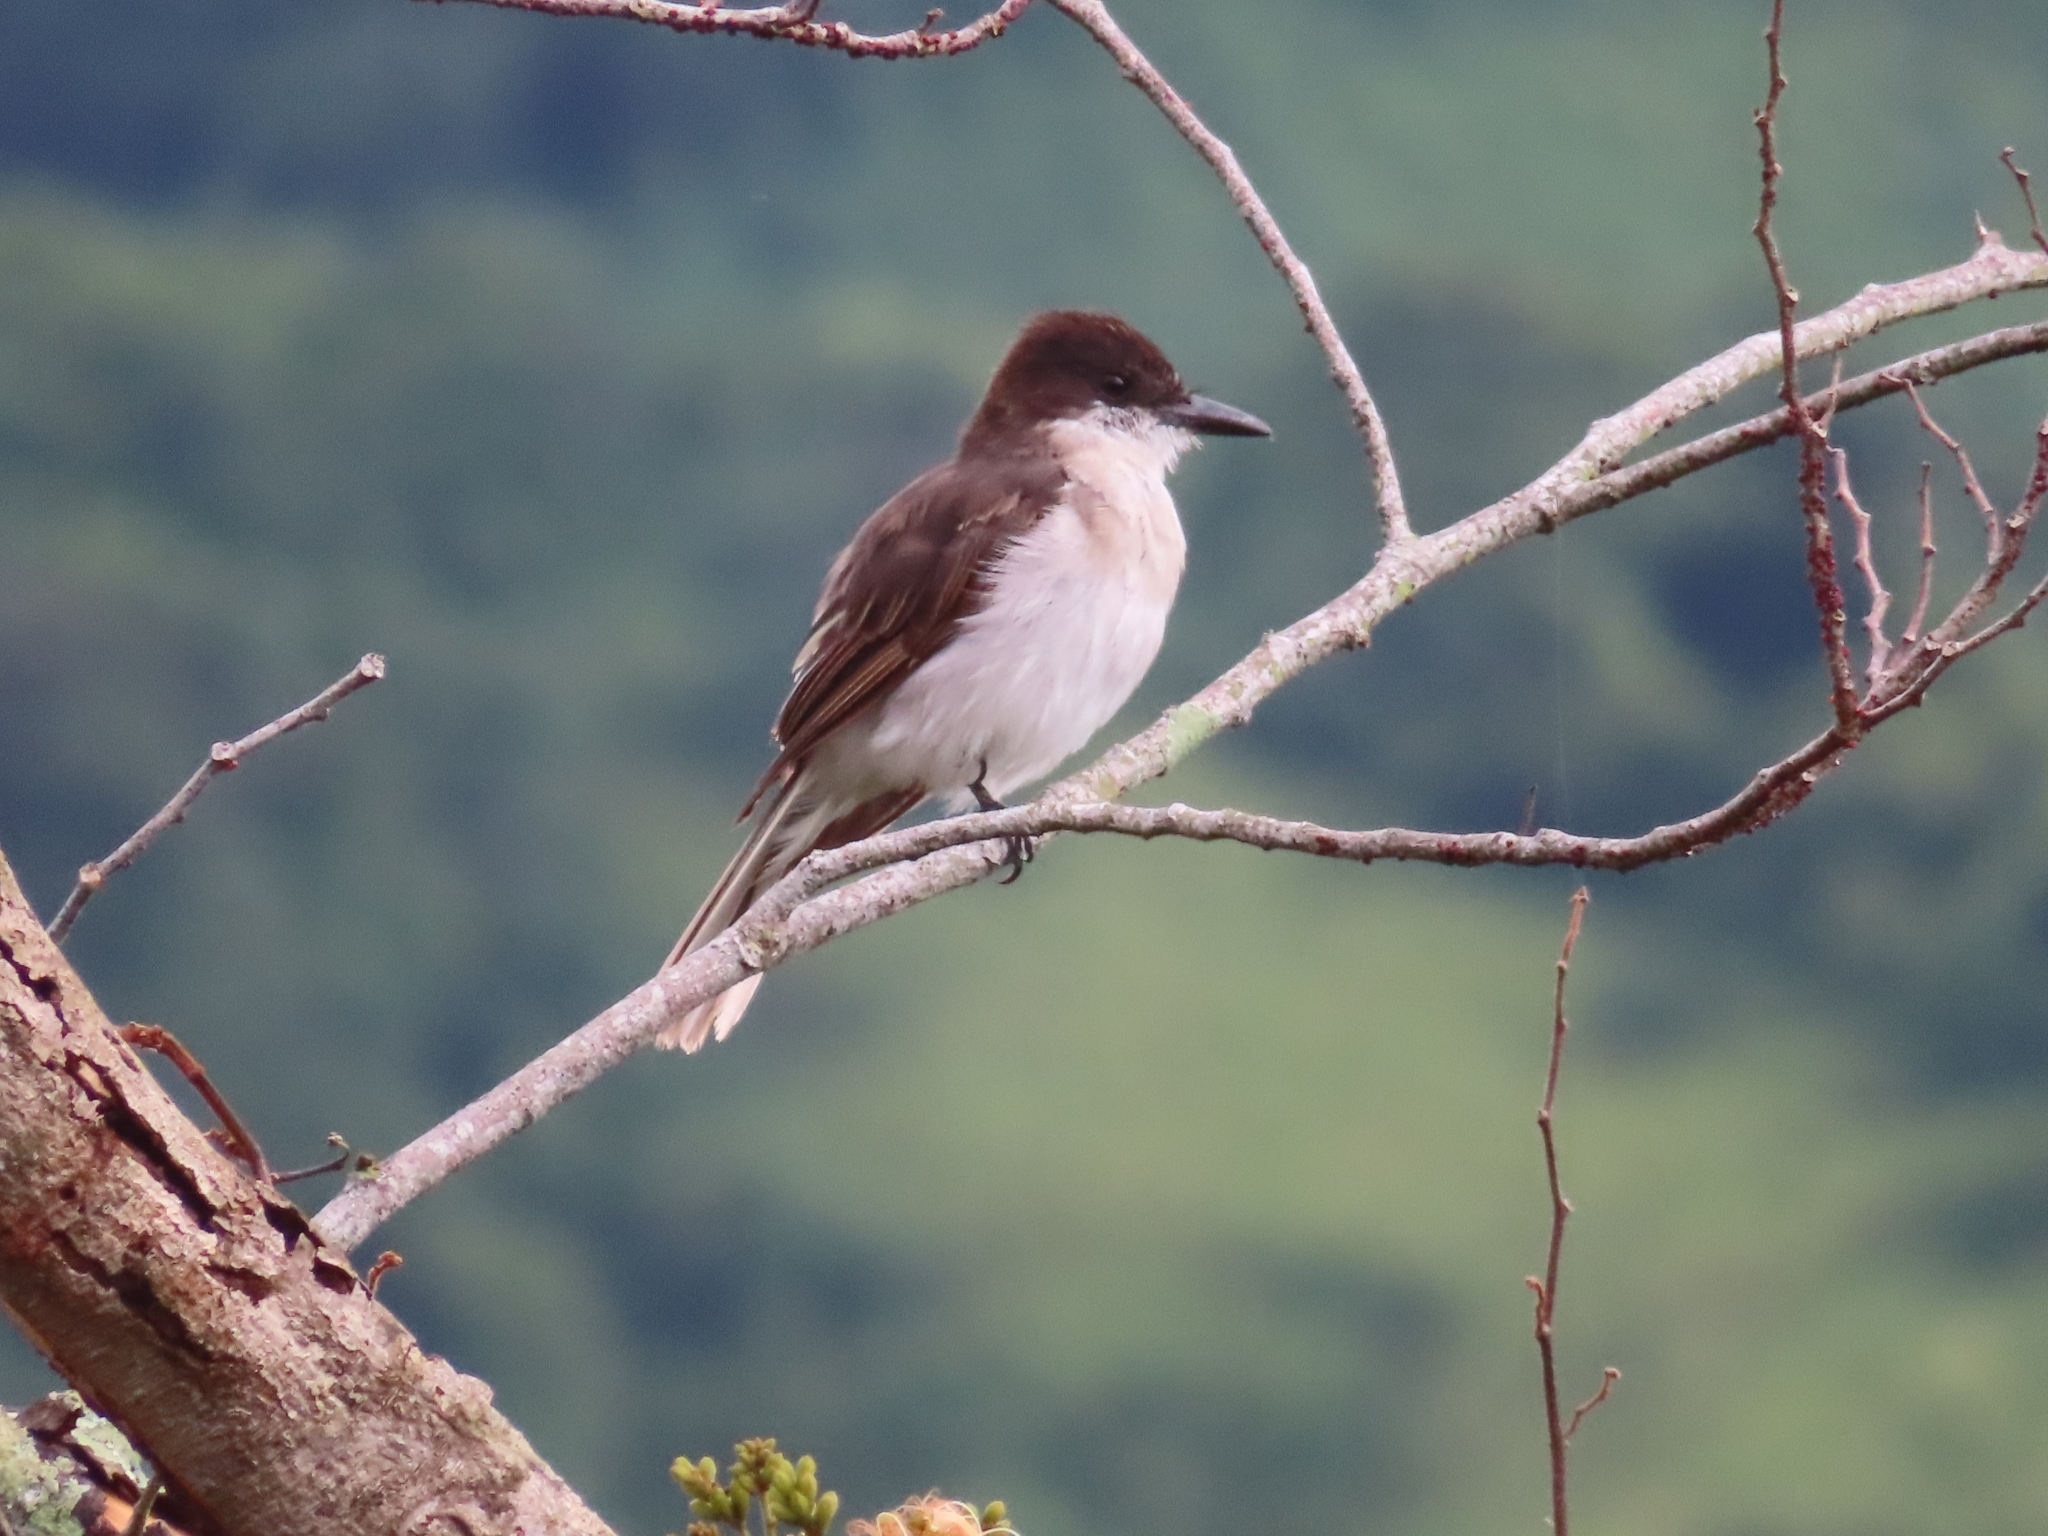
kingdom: Animalia
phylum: Chordata
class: Aves
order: Passeriformes
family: Tyrannidae
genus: Tyrannus
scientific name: Tyrannus caudifasciatus
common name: Loggerhead kingbird
